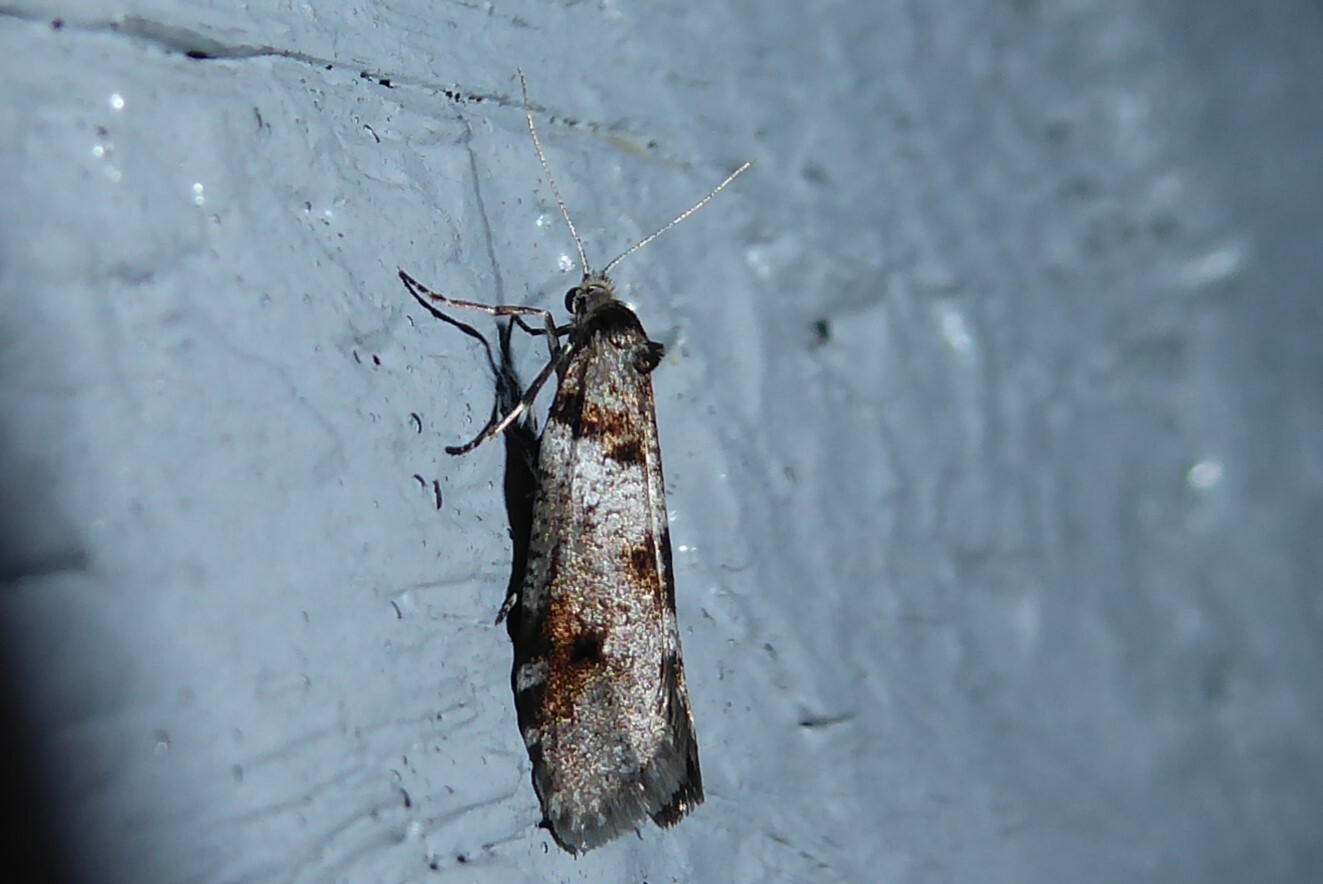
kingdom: Animalia
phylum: Arthropoda
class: Insecta
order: Lepidoptera
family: Psychidae
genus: Lepidoscia
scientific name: Lepidoscia heliochares
